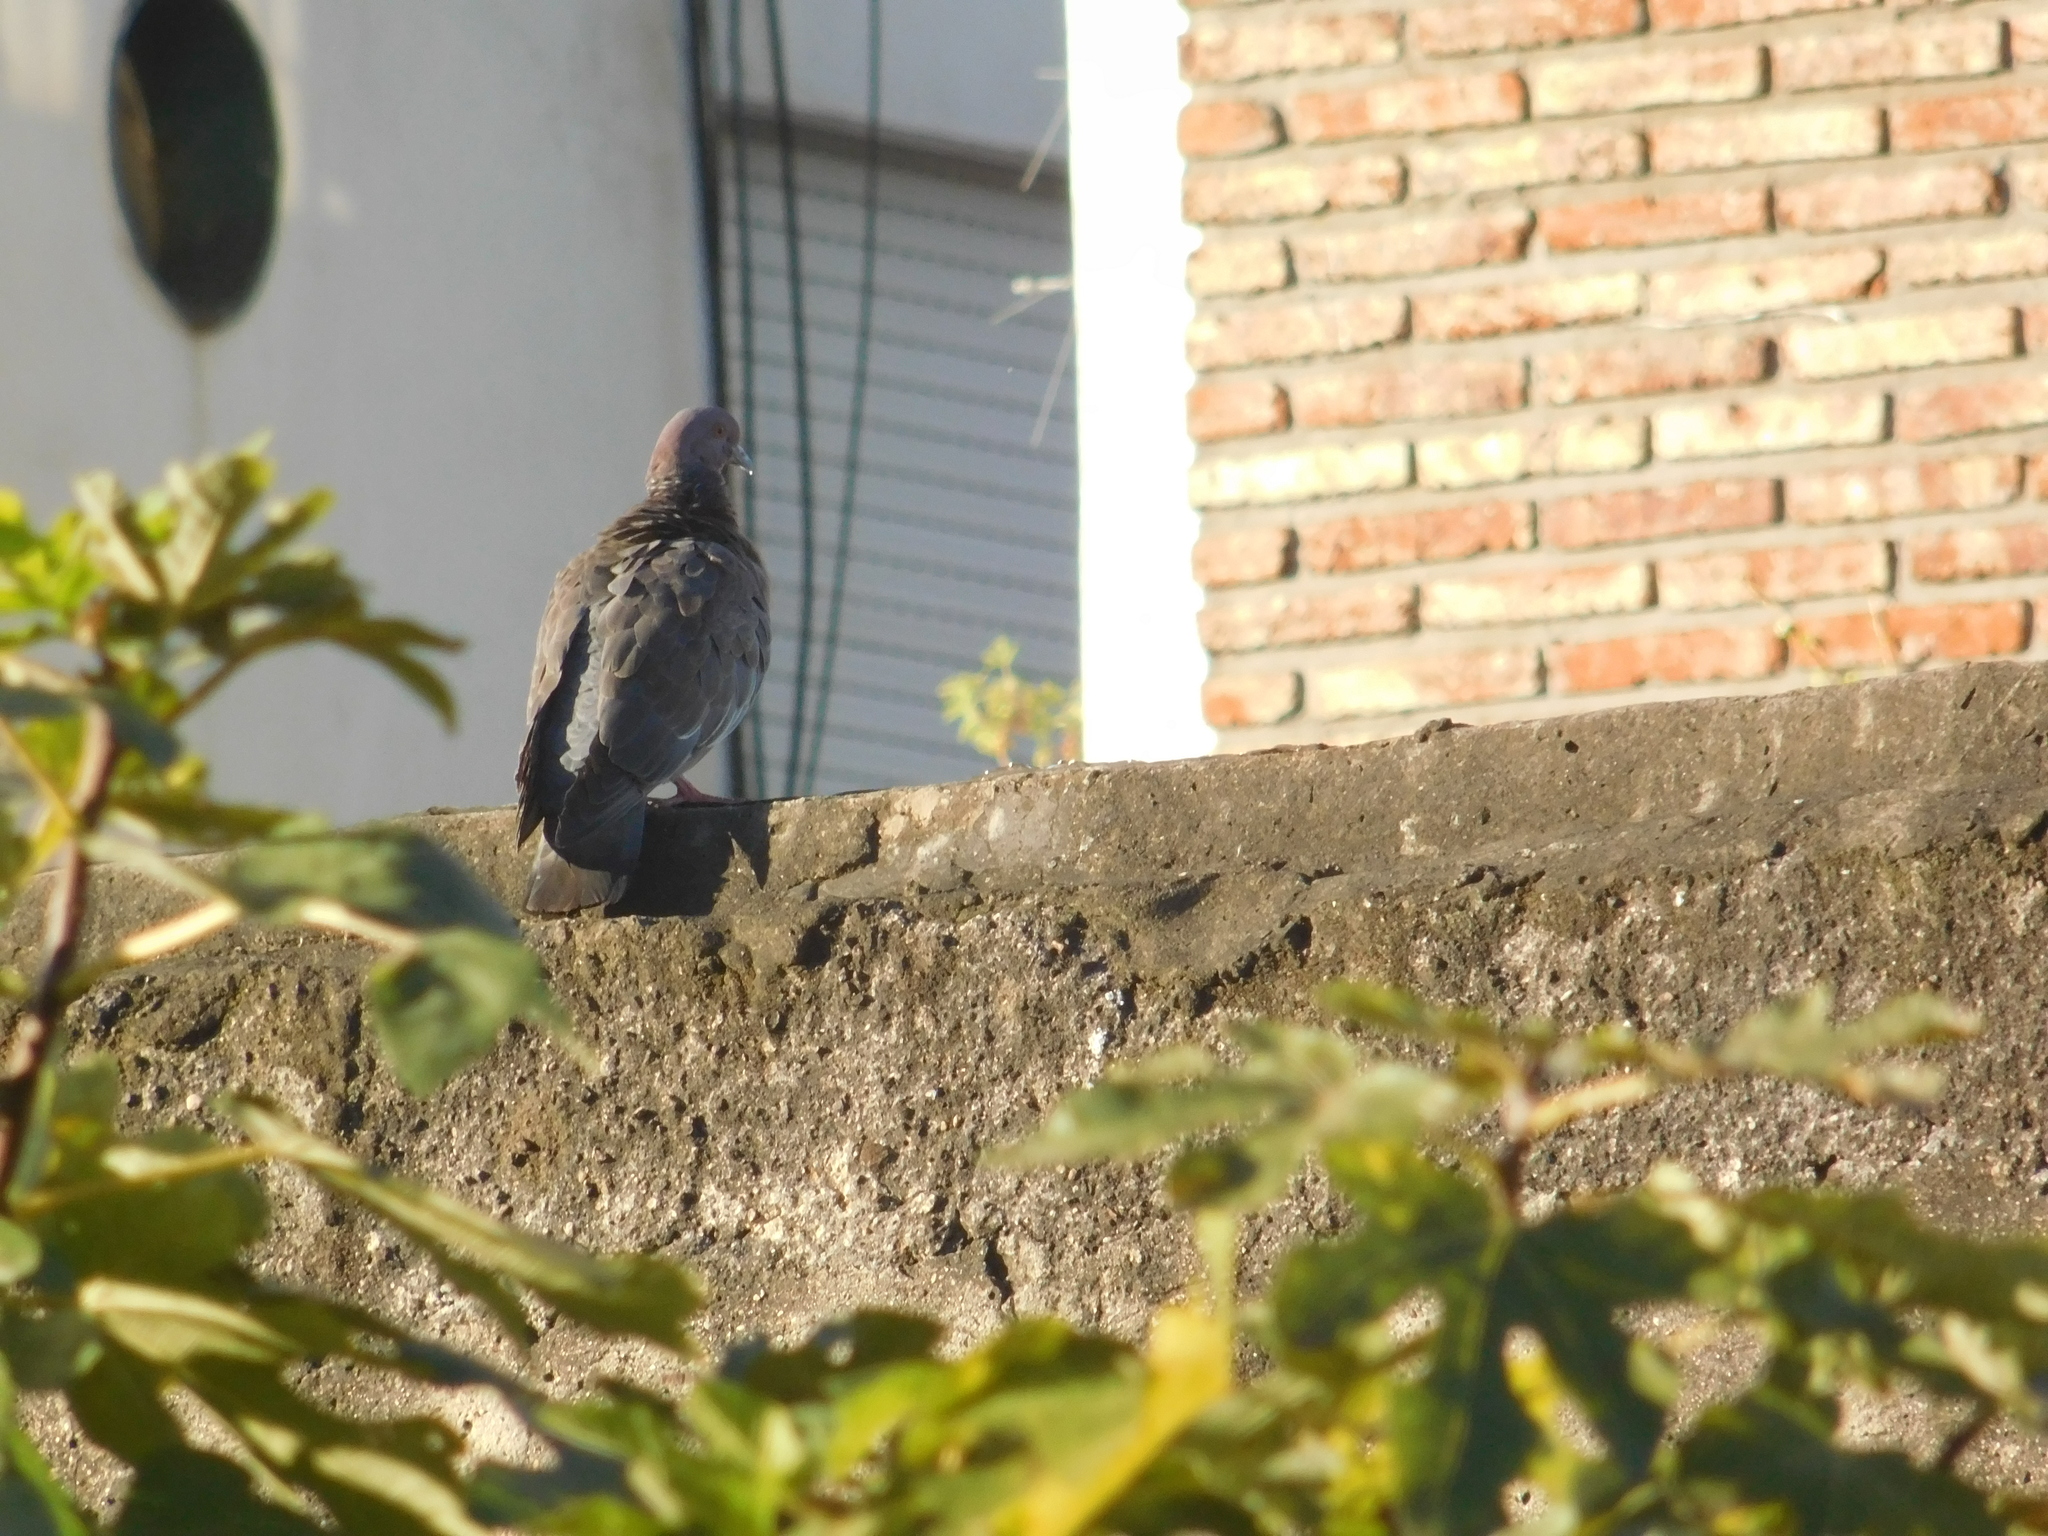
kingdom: Animalia
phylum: Chordata
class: Aves
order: Columbiformes
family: Columbidae
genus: Patagioenas
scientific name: Patagioenas picazuro
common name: Picazuro pigeon
